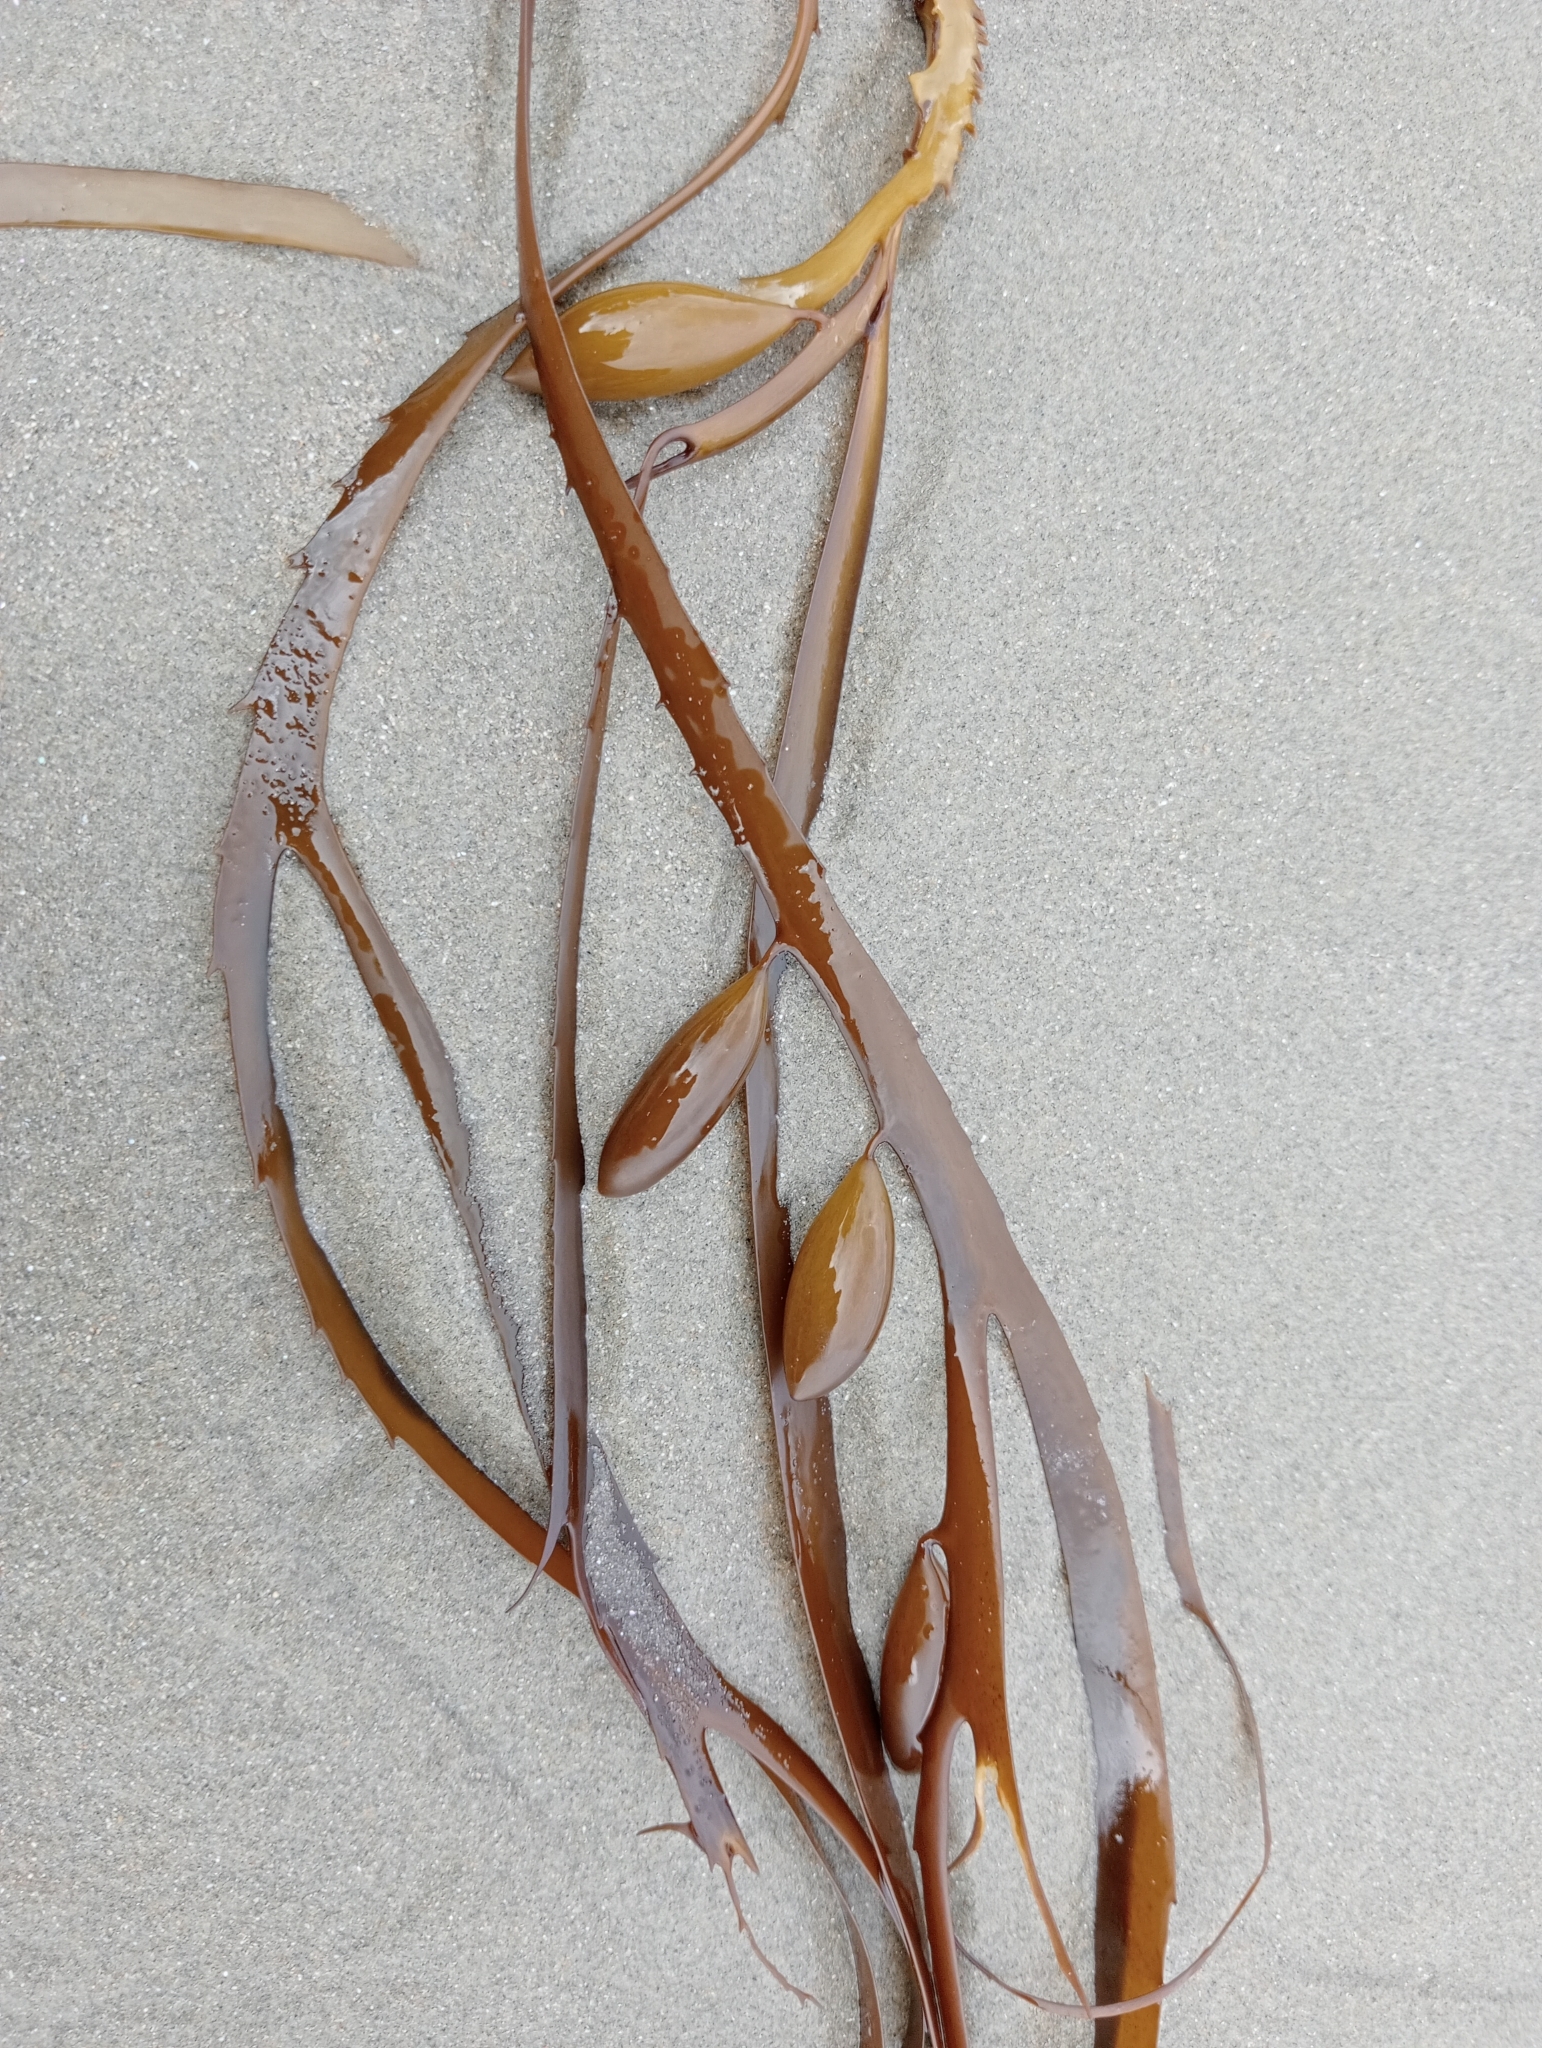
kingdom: Chromista
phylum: Ochrophyta
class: Phaeophyceae
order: Fucales
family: Seirococcaceae
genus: Marginariella
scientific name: Marginariella boryana
